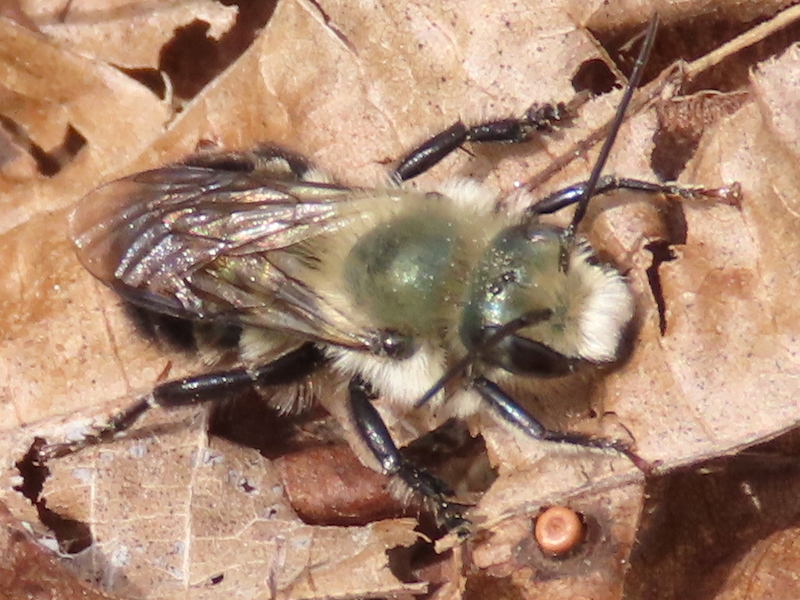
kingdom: Animalia
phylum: Arthropoda
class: Insecta
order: Hymenoptera
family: Megachilidae
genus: Osmia
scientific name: Osmia bucephala
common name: Bufflehead mason bee
